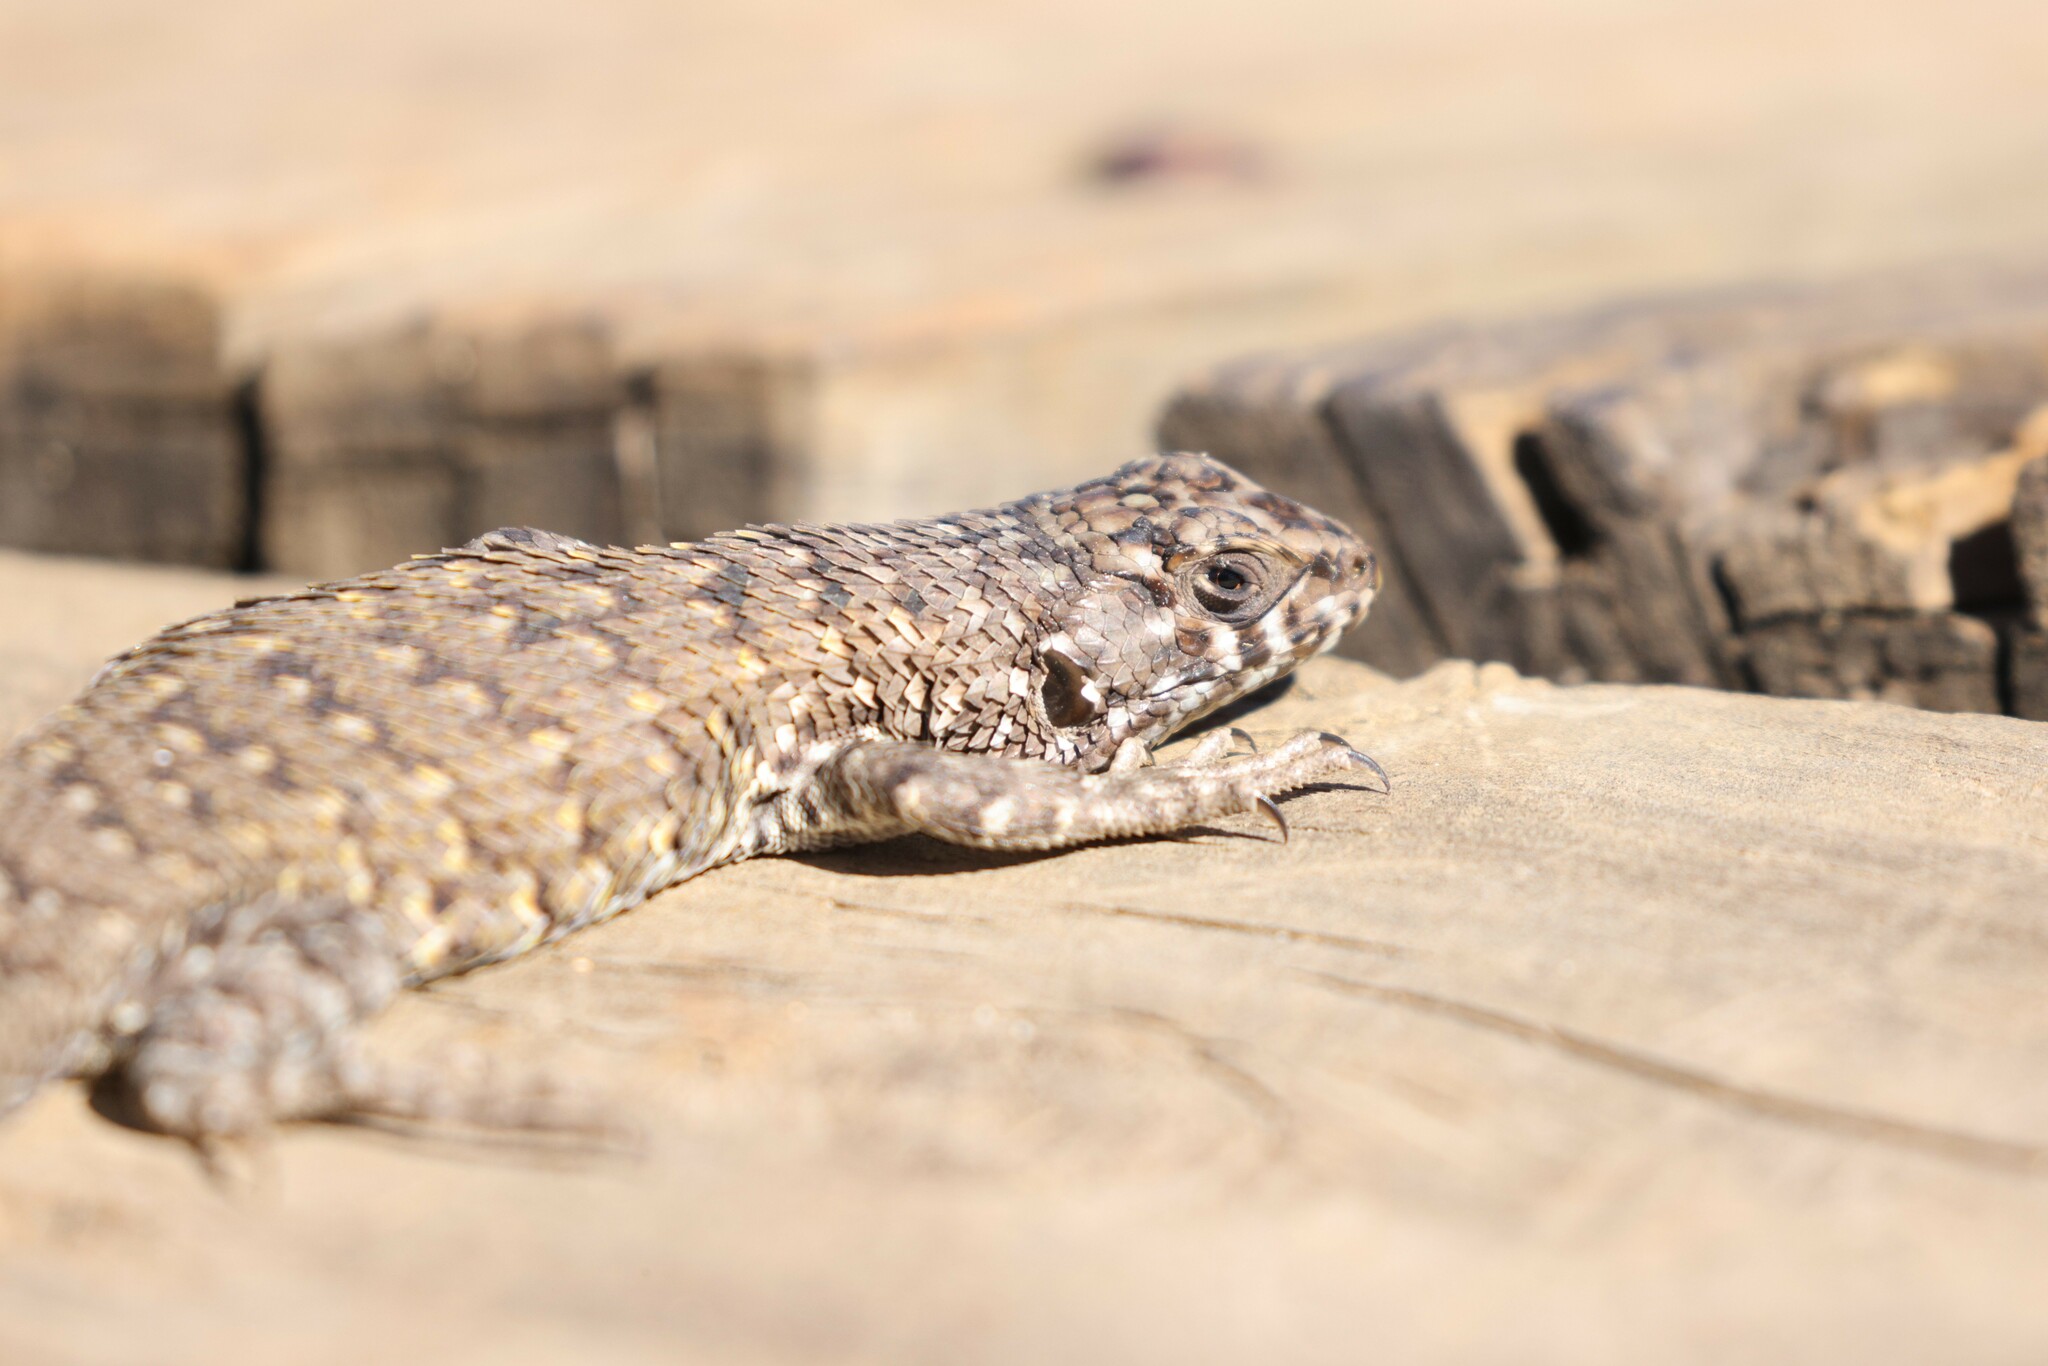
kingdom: Animalia
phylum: Chordata
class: Squamata
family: Liolaemidae
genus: Liolaemus
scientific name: Liolaemus nitidus
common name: Shining tree iguana
